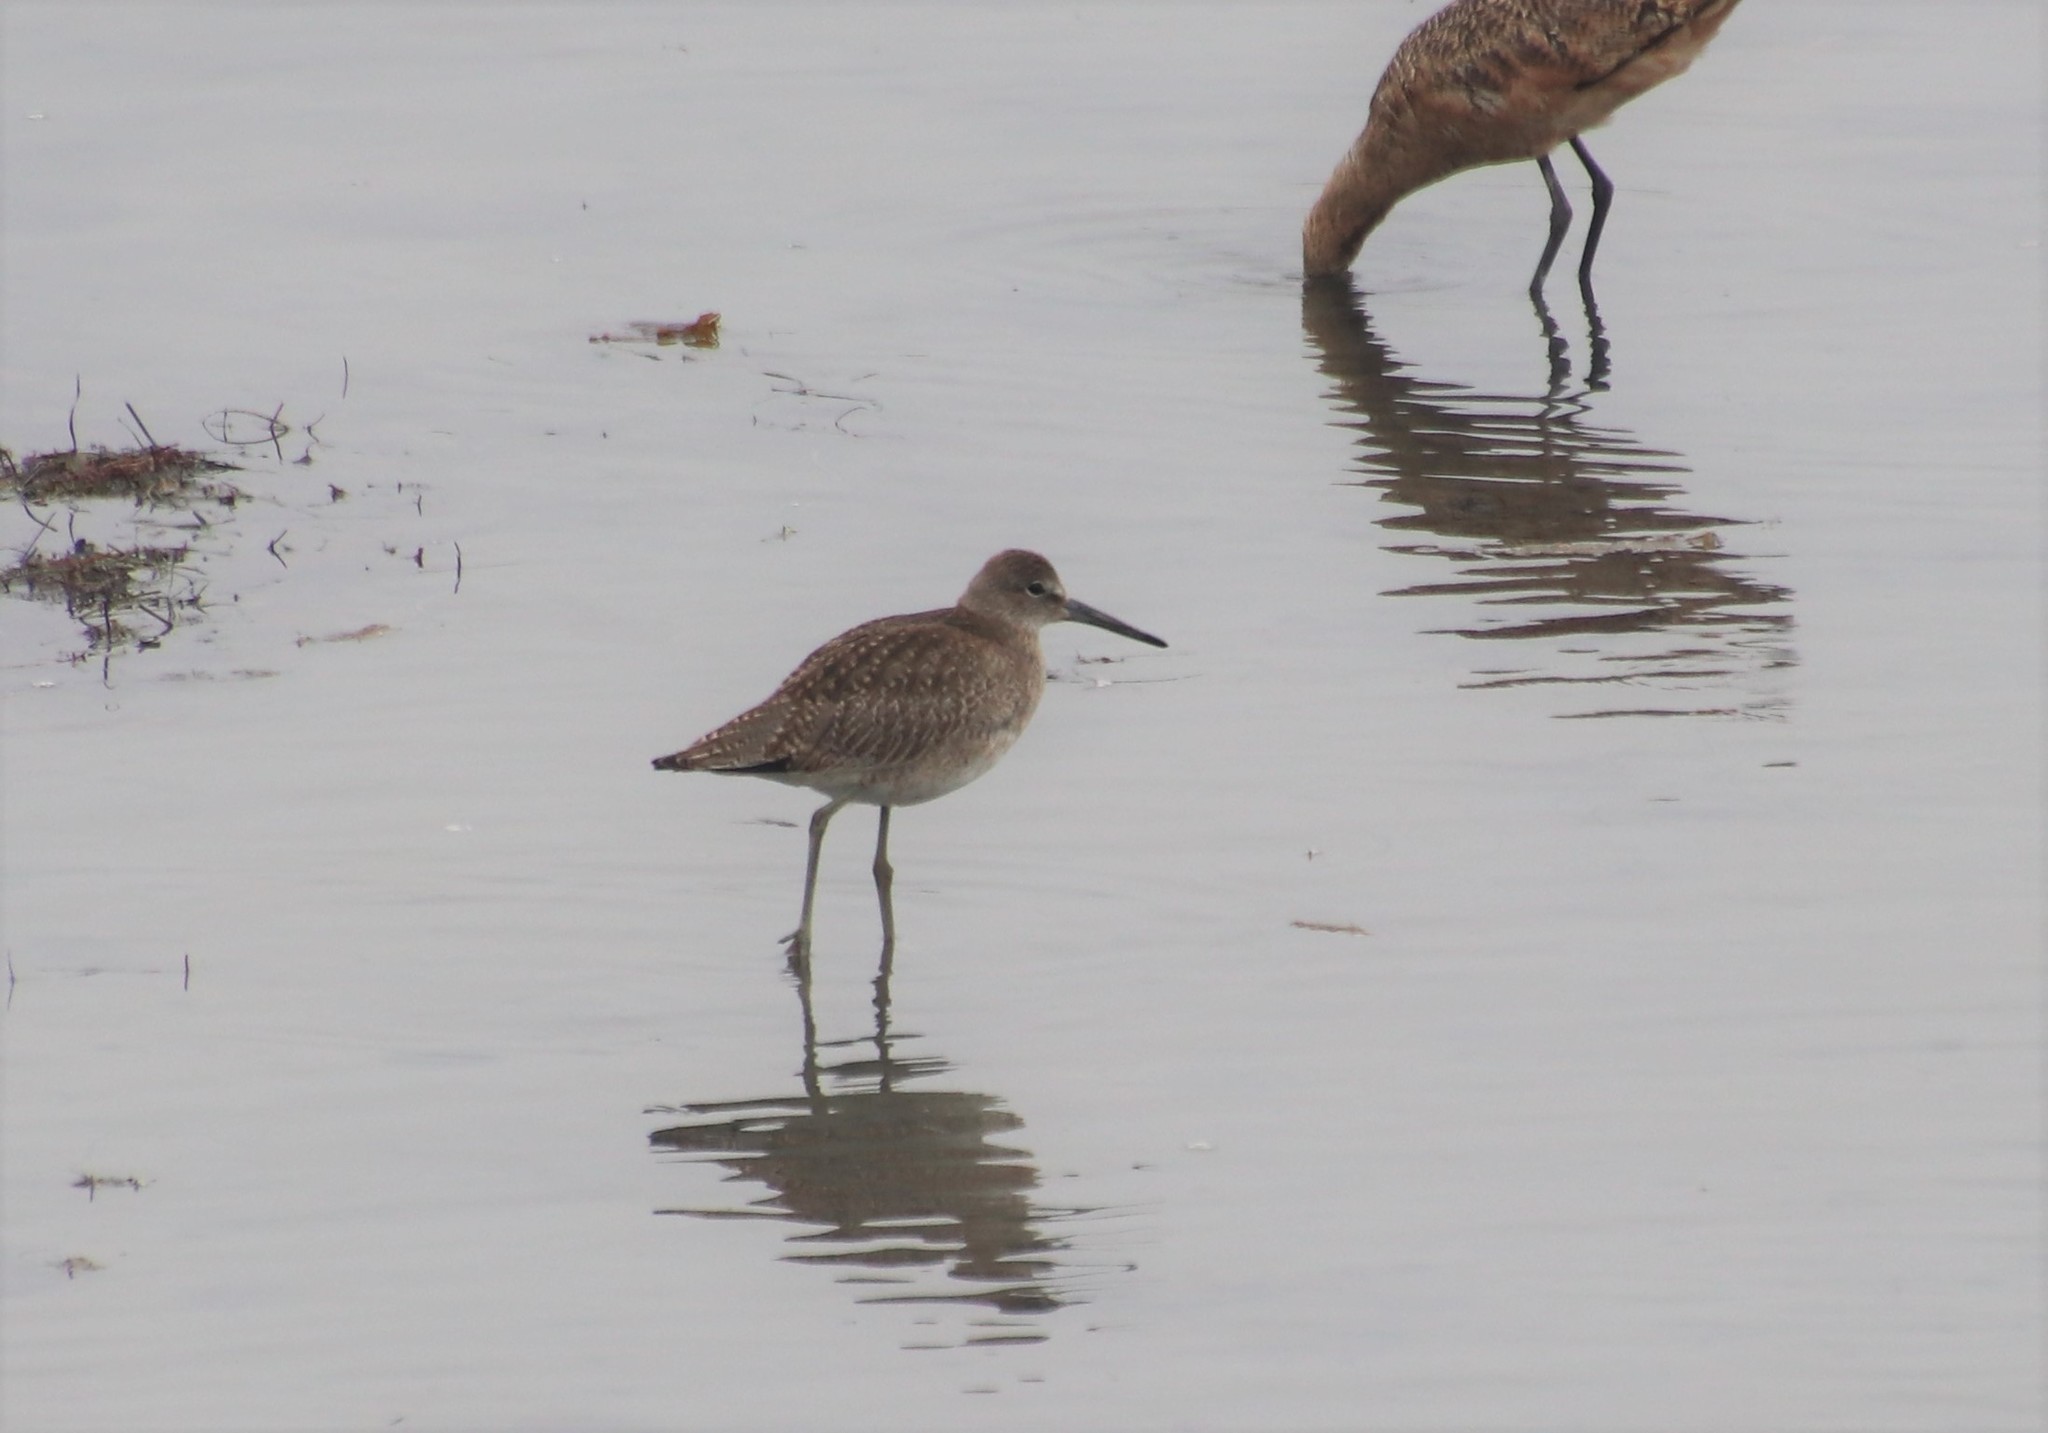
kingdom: Animalia
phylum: Chordata
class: Aves
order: Charadriiformes
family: Scolopacidae
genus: Tringa
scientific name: Tringa semipalmata
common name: Willet
